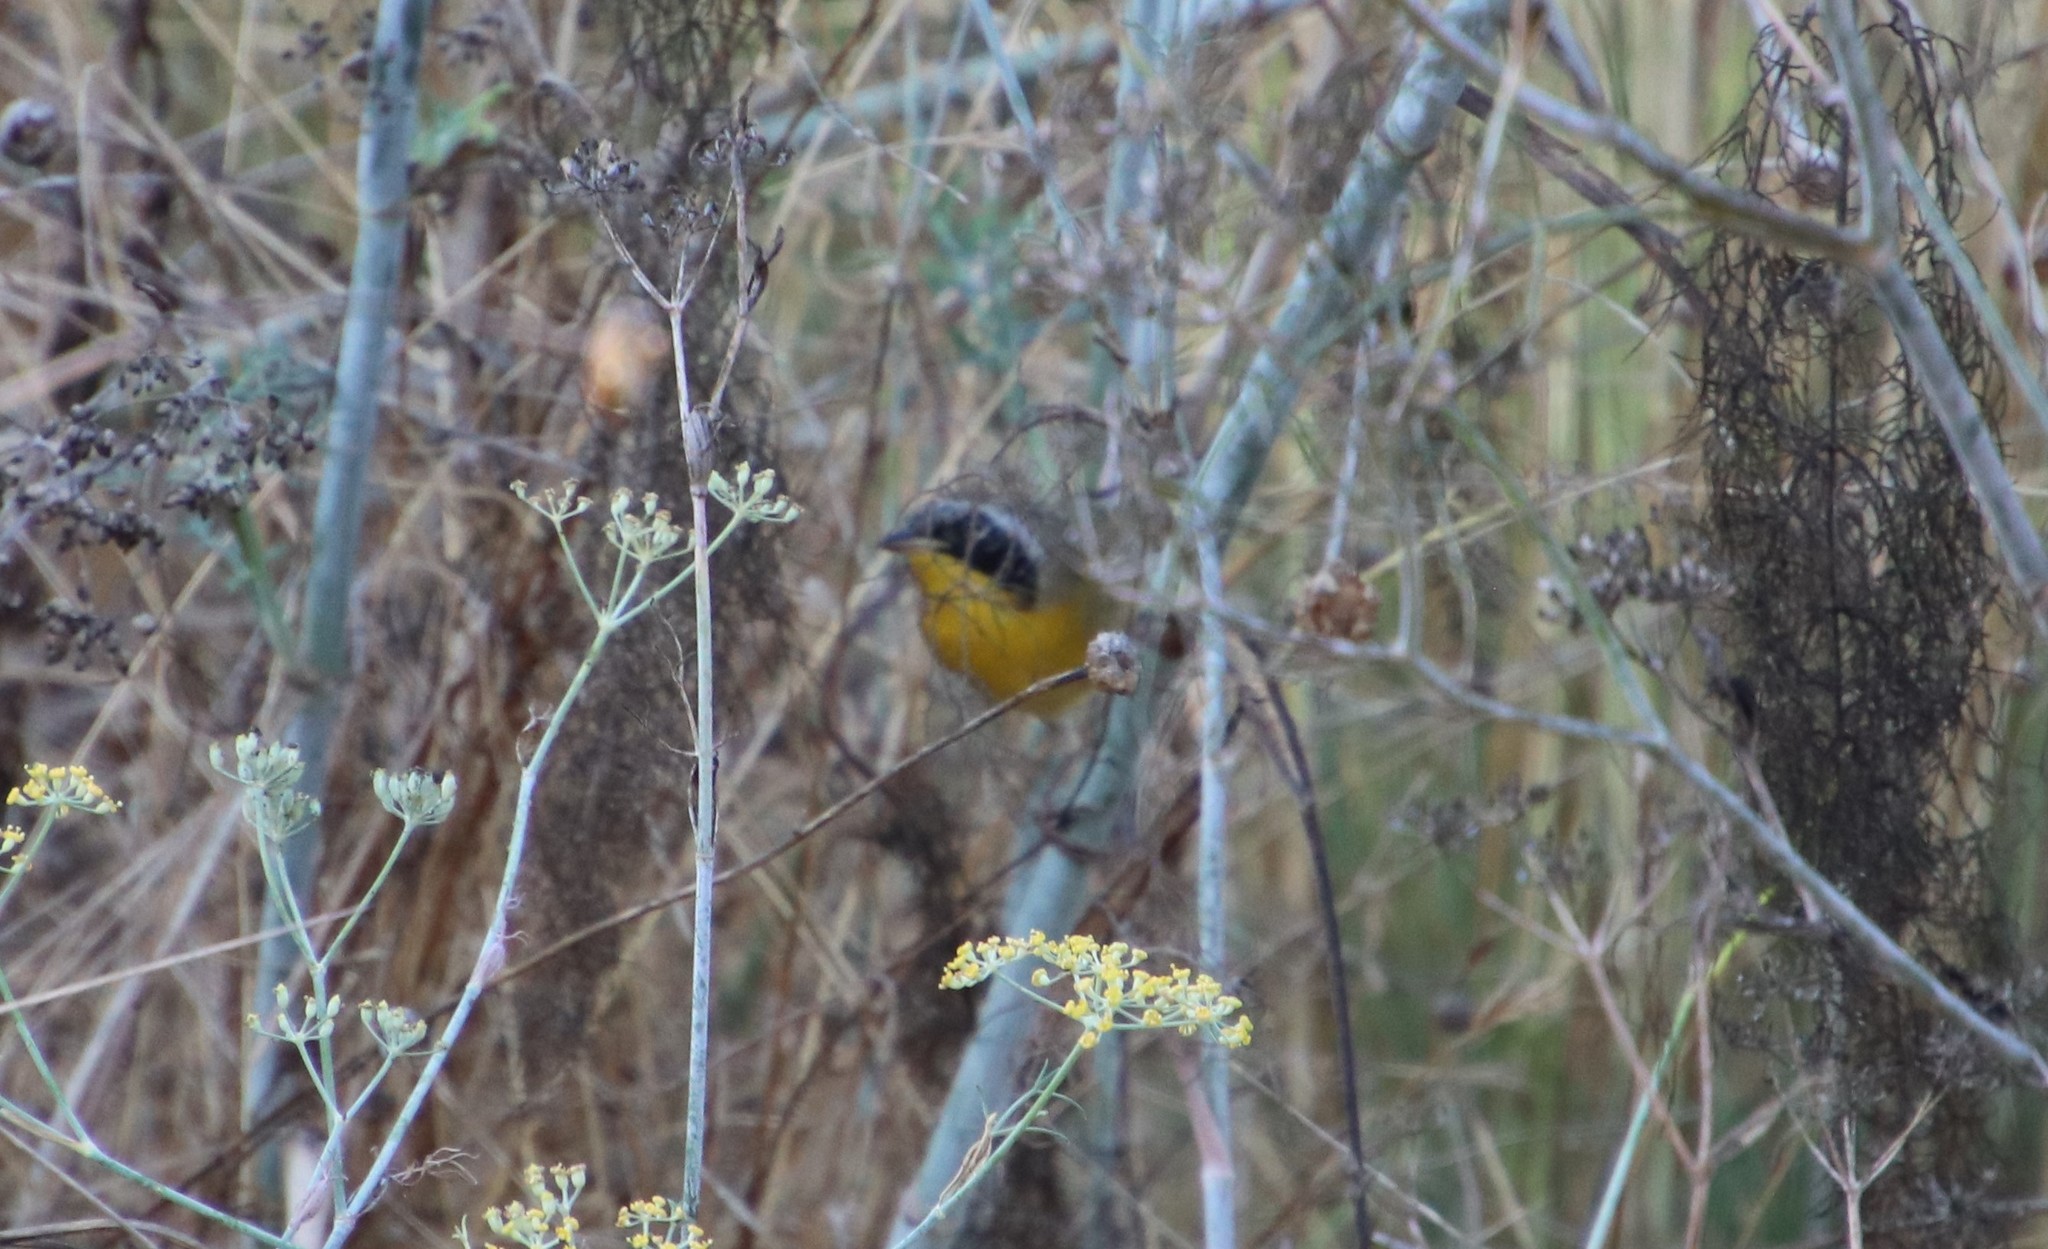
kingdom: Animalia
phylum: Chordata
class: Aves
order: Passeriformes
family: Parulidae
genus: Geothlypis
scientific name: Geothlypis trichas
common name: Common yellowthroat
